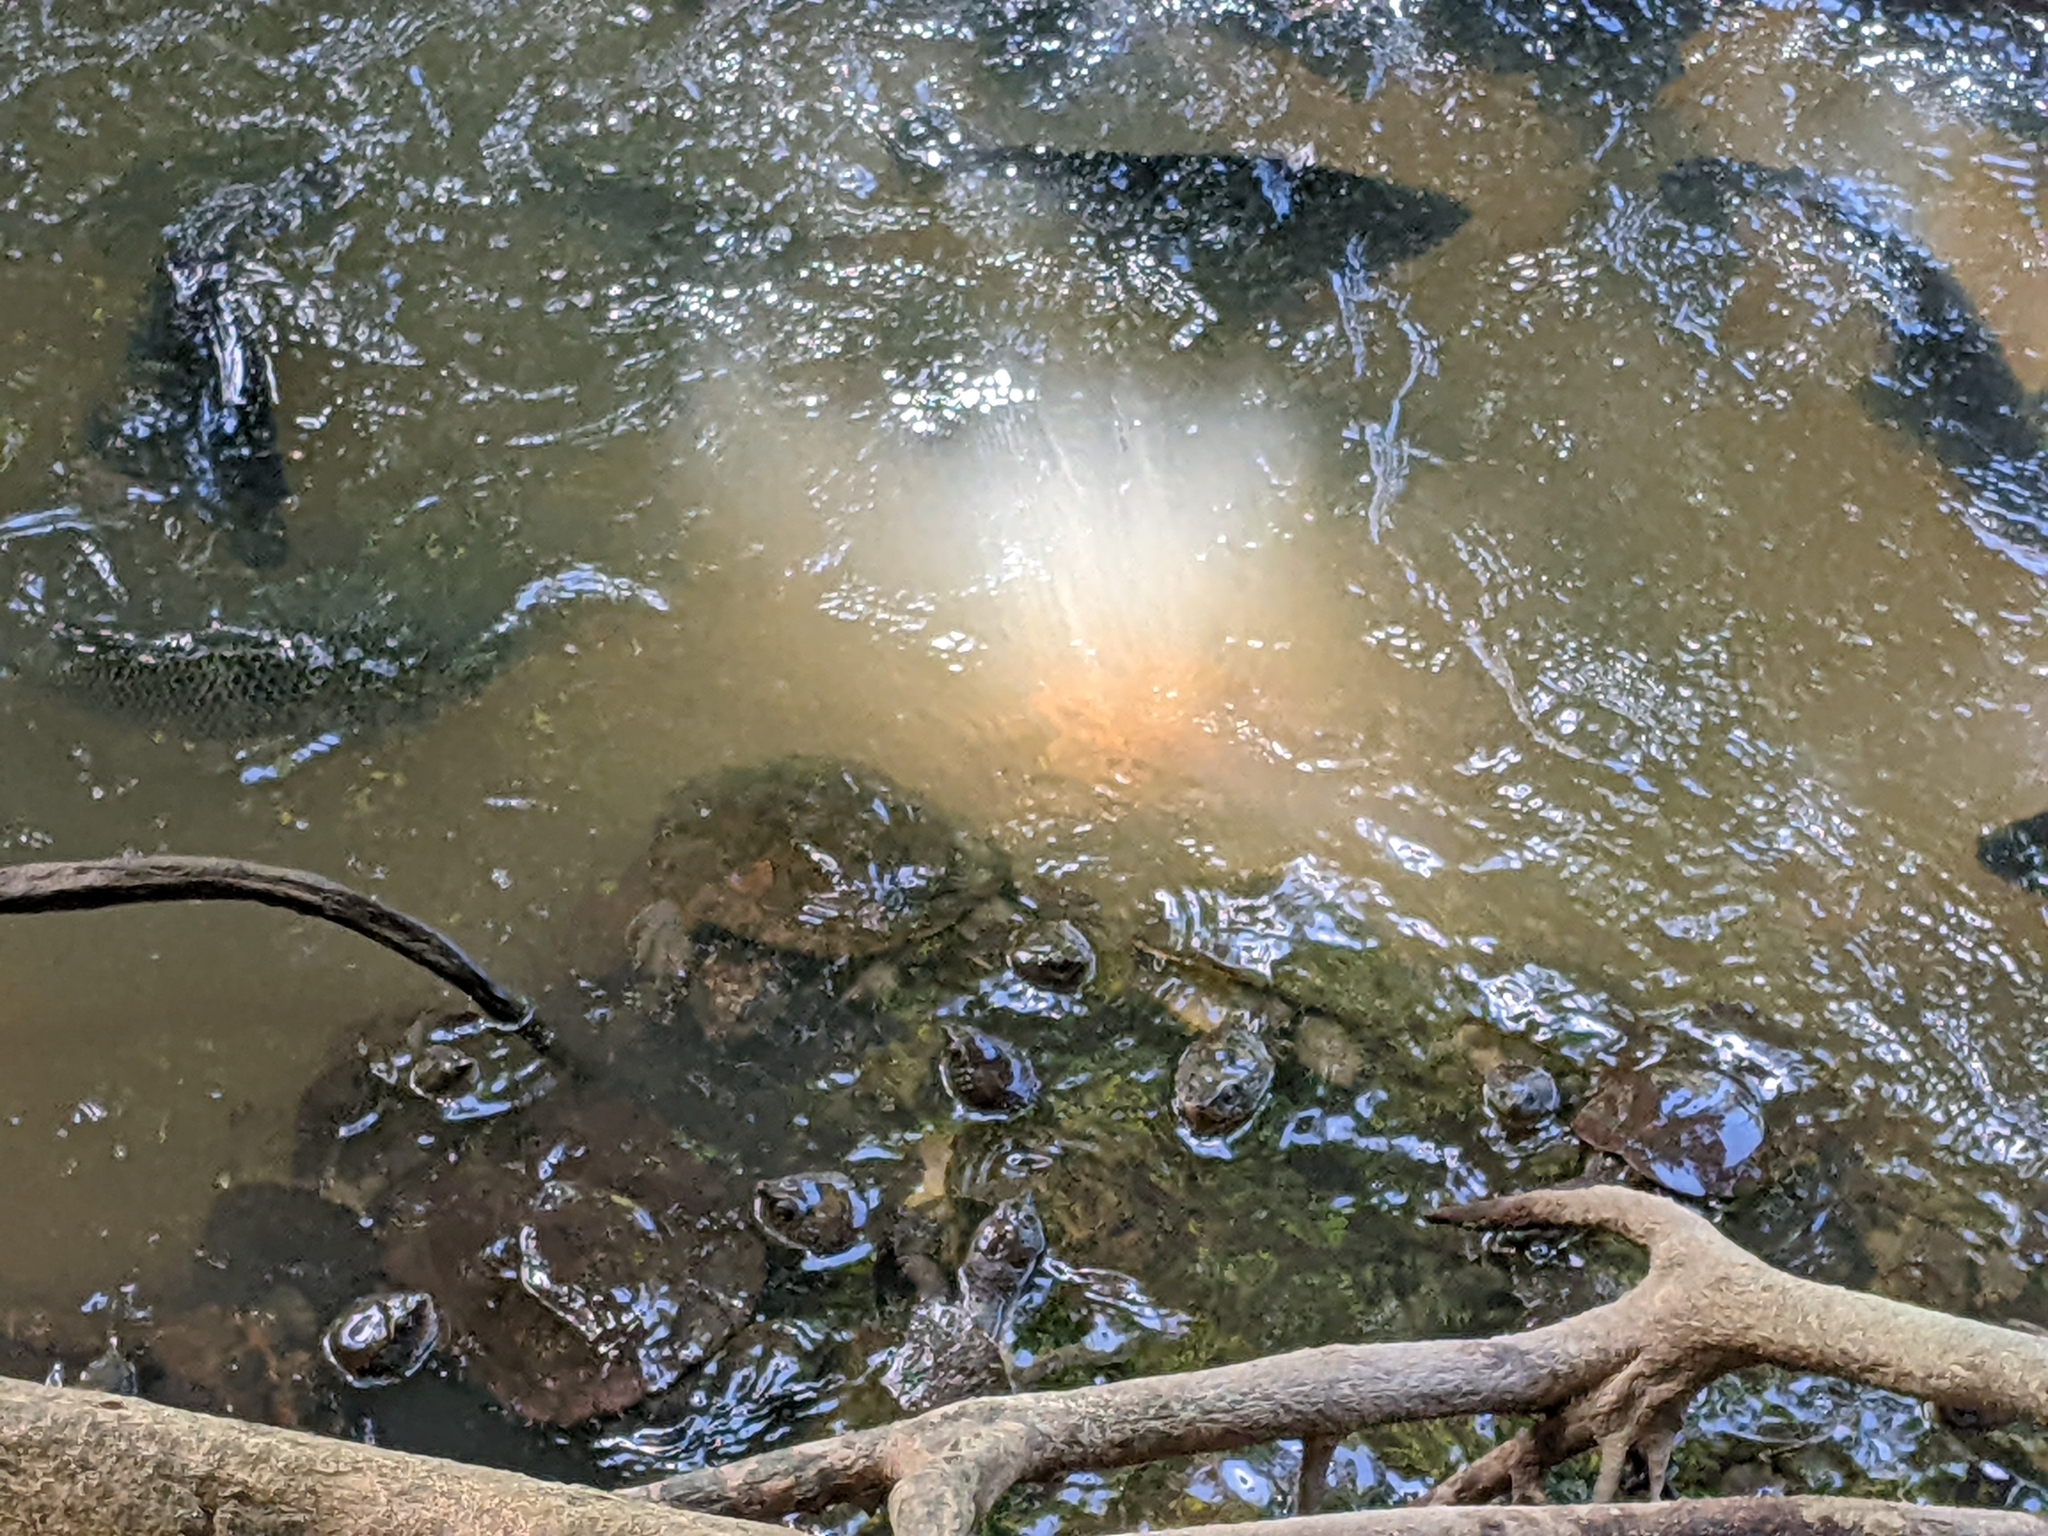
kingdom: Animalia
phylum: Chordata
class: Testudines
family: Chelidae
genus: Myuchelys
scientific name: Myuchelys latisternum
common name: Serrated snapping turtle
